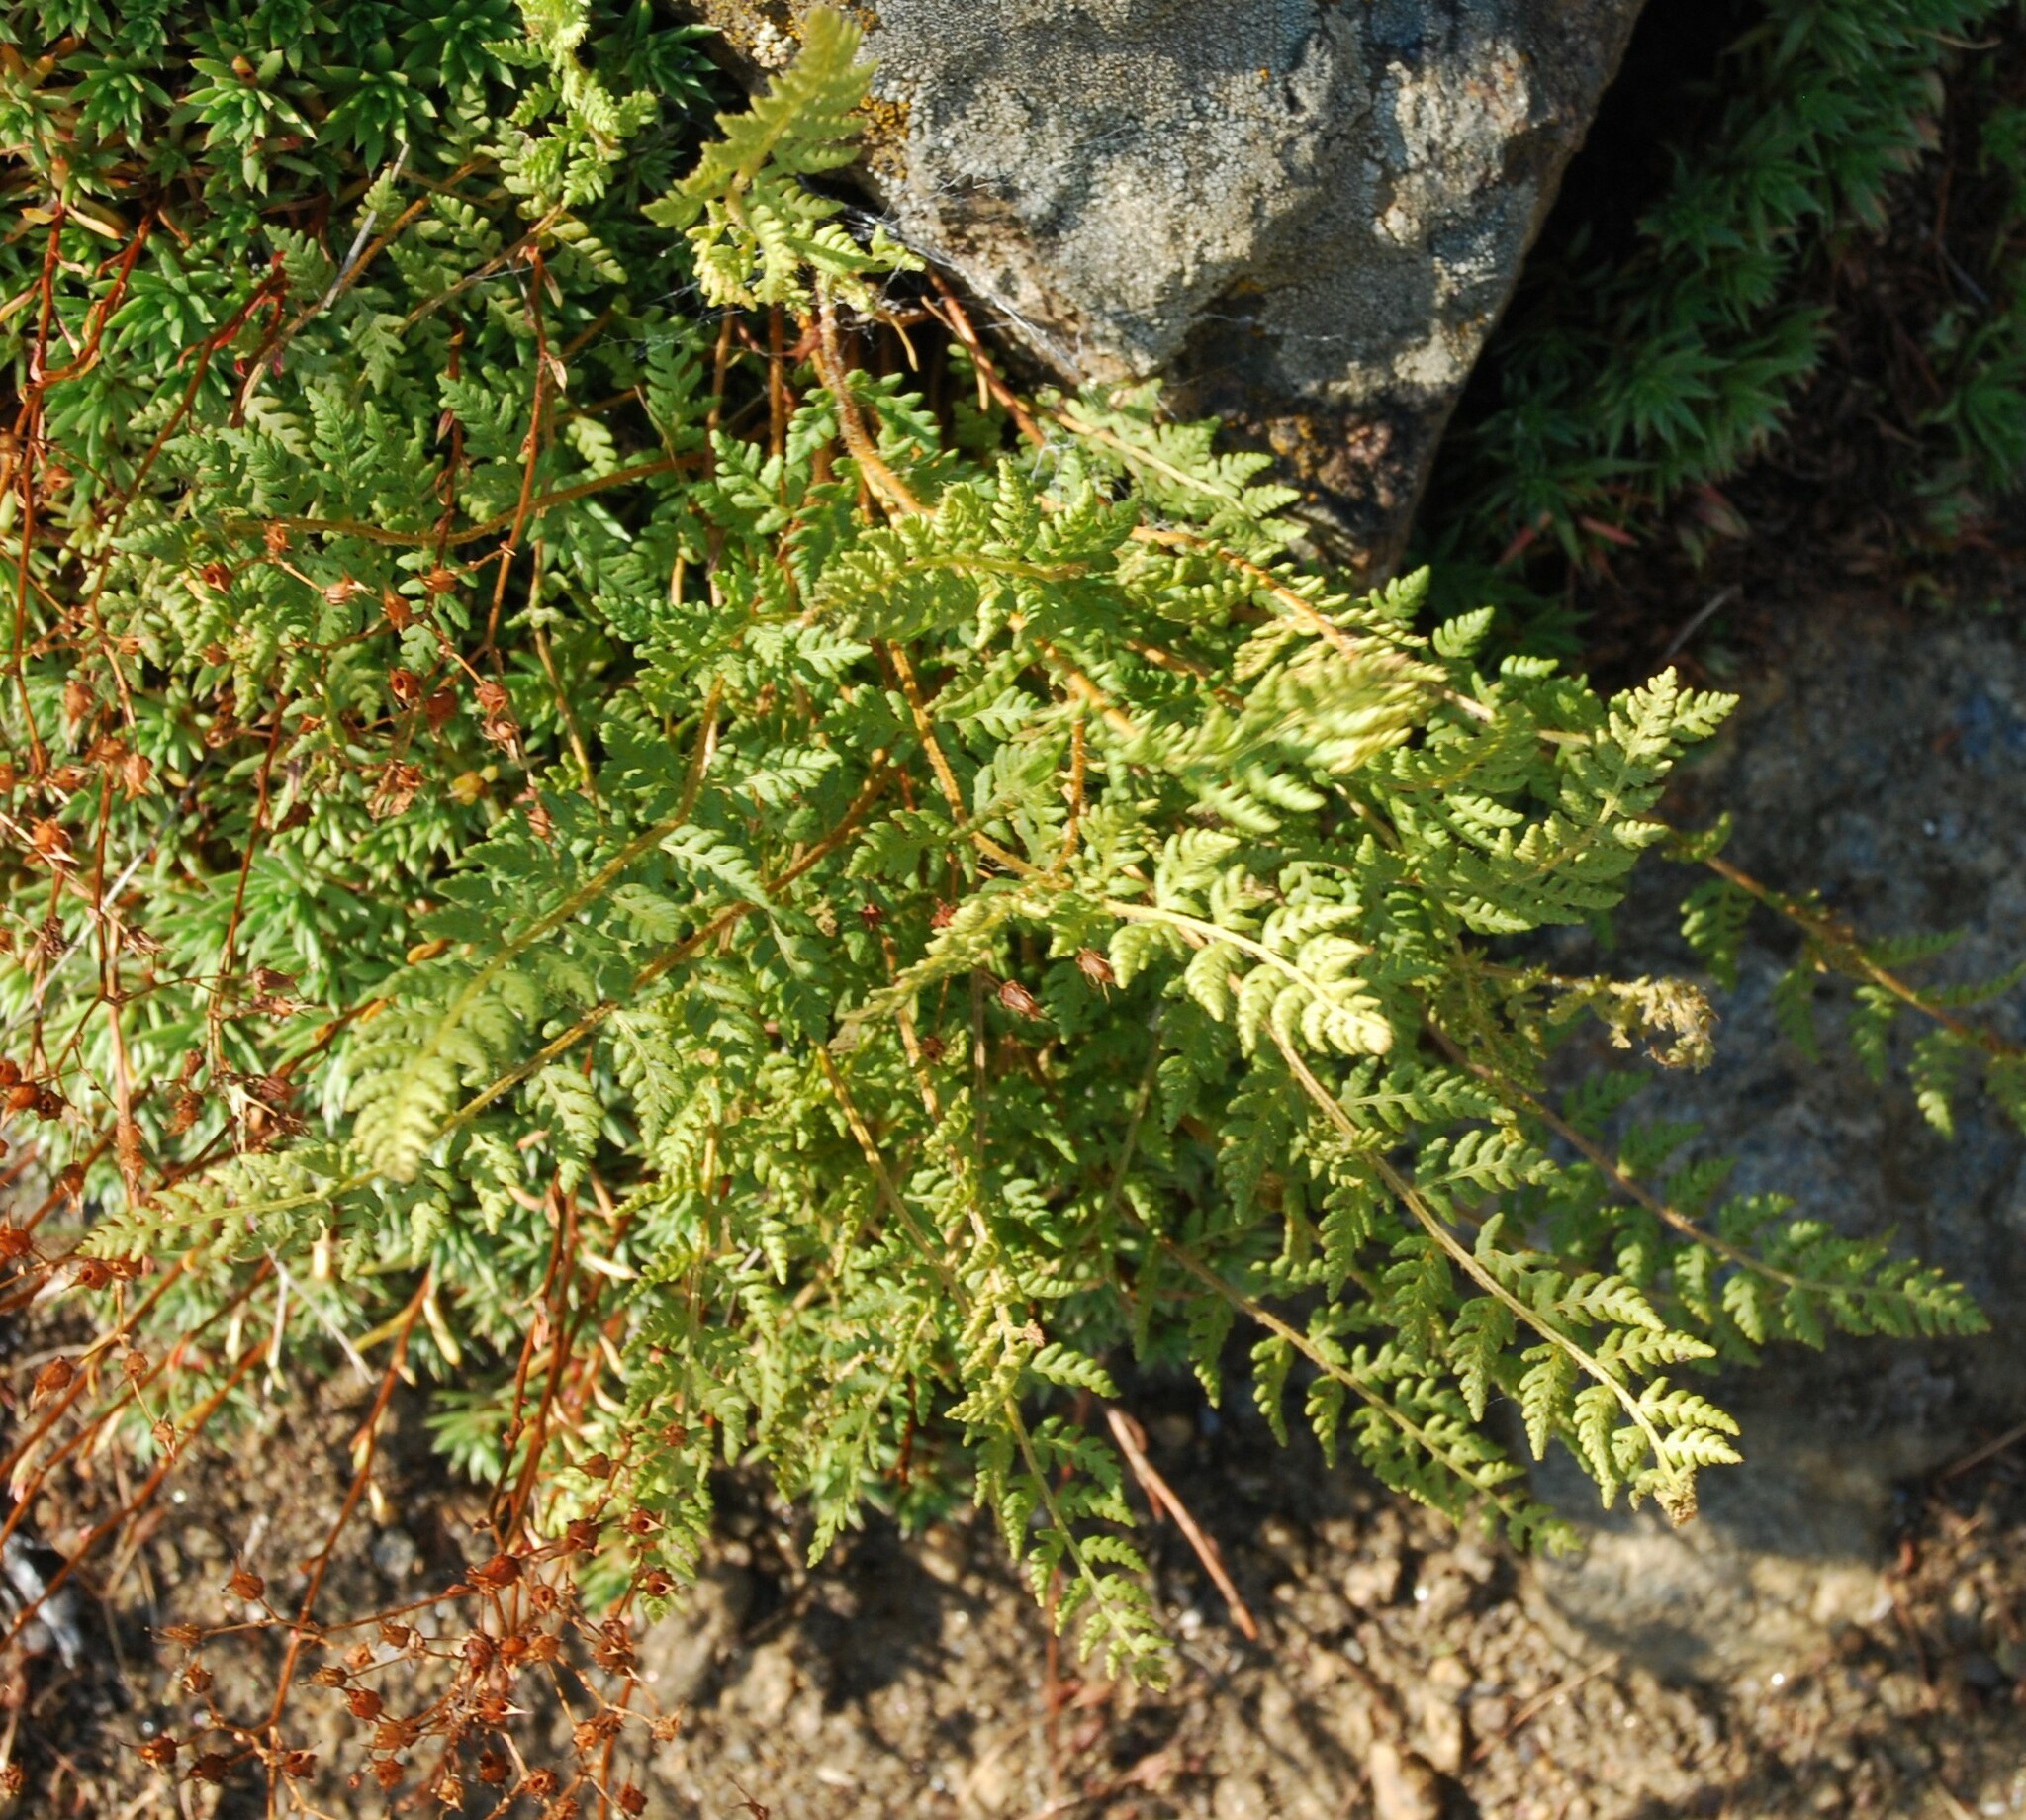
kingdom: Plantae
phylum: Tracheophyta
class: Polypodiopsida
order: Polypodiales
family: Woodsiaceae
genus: Woodsia
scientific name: Woodsia ilvensis
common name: Fragrant woodsia
